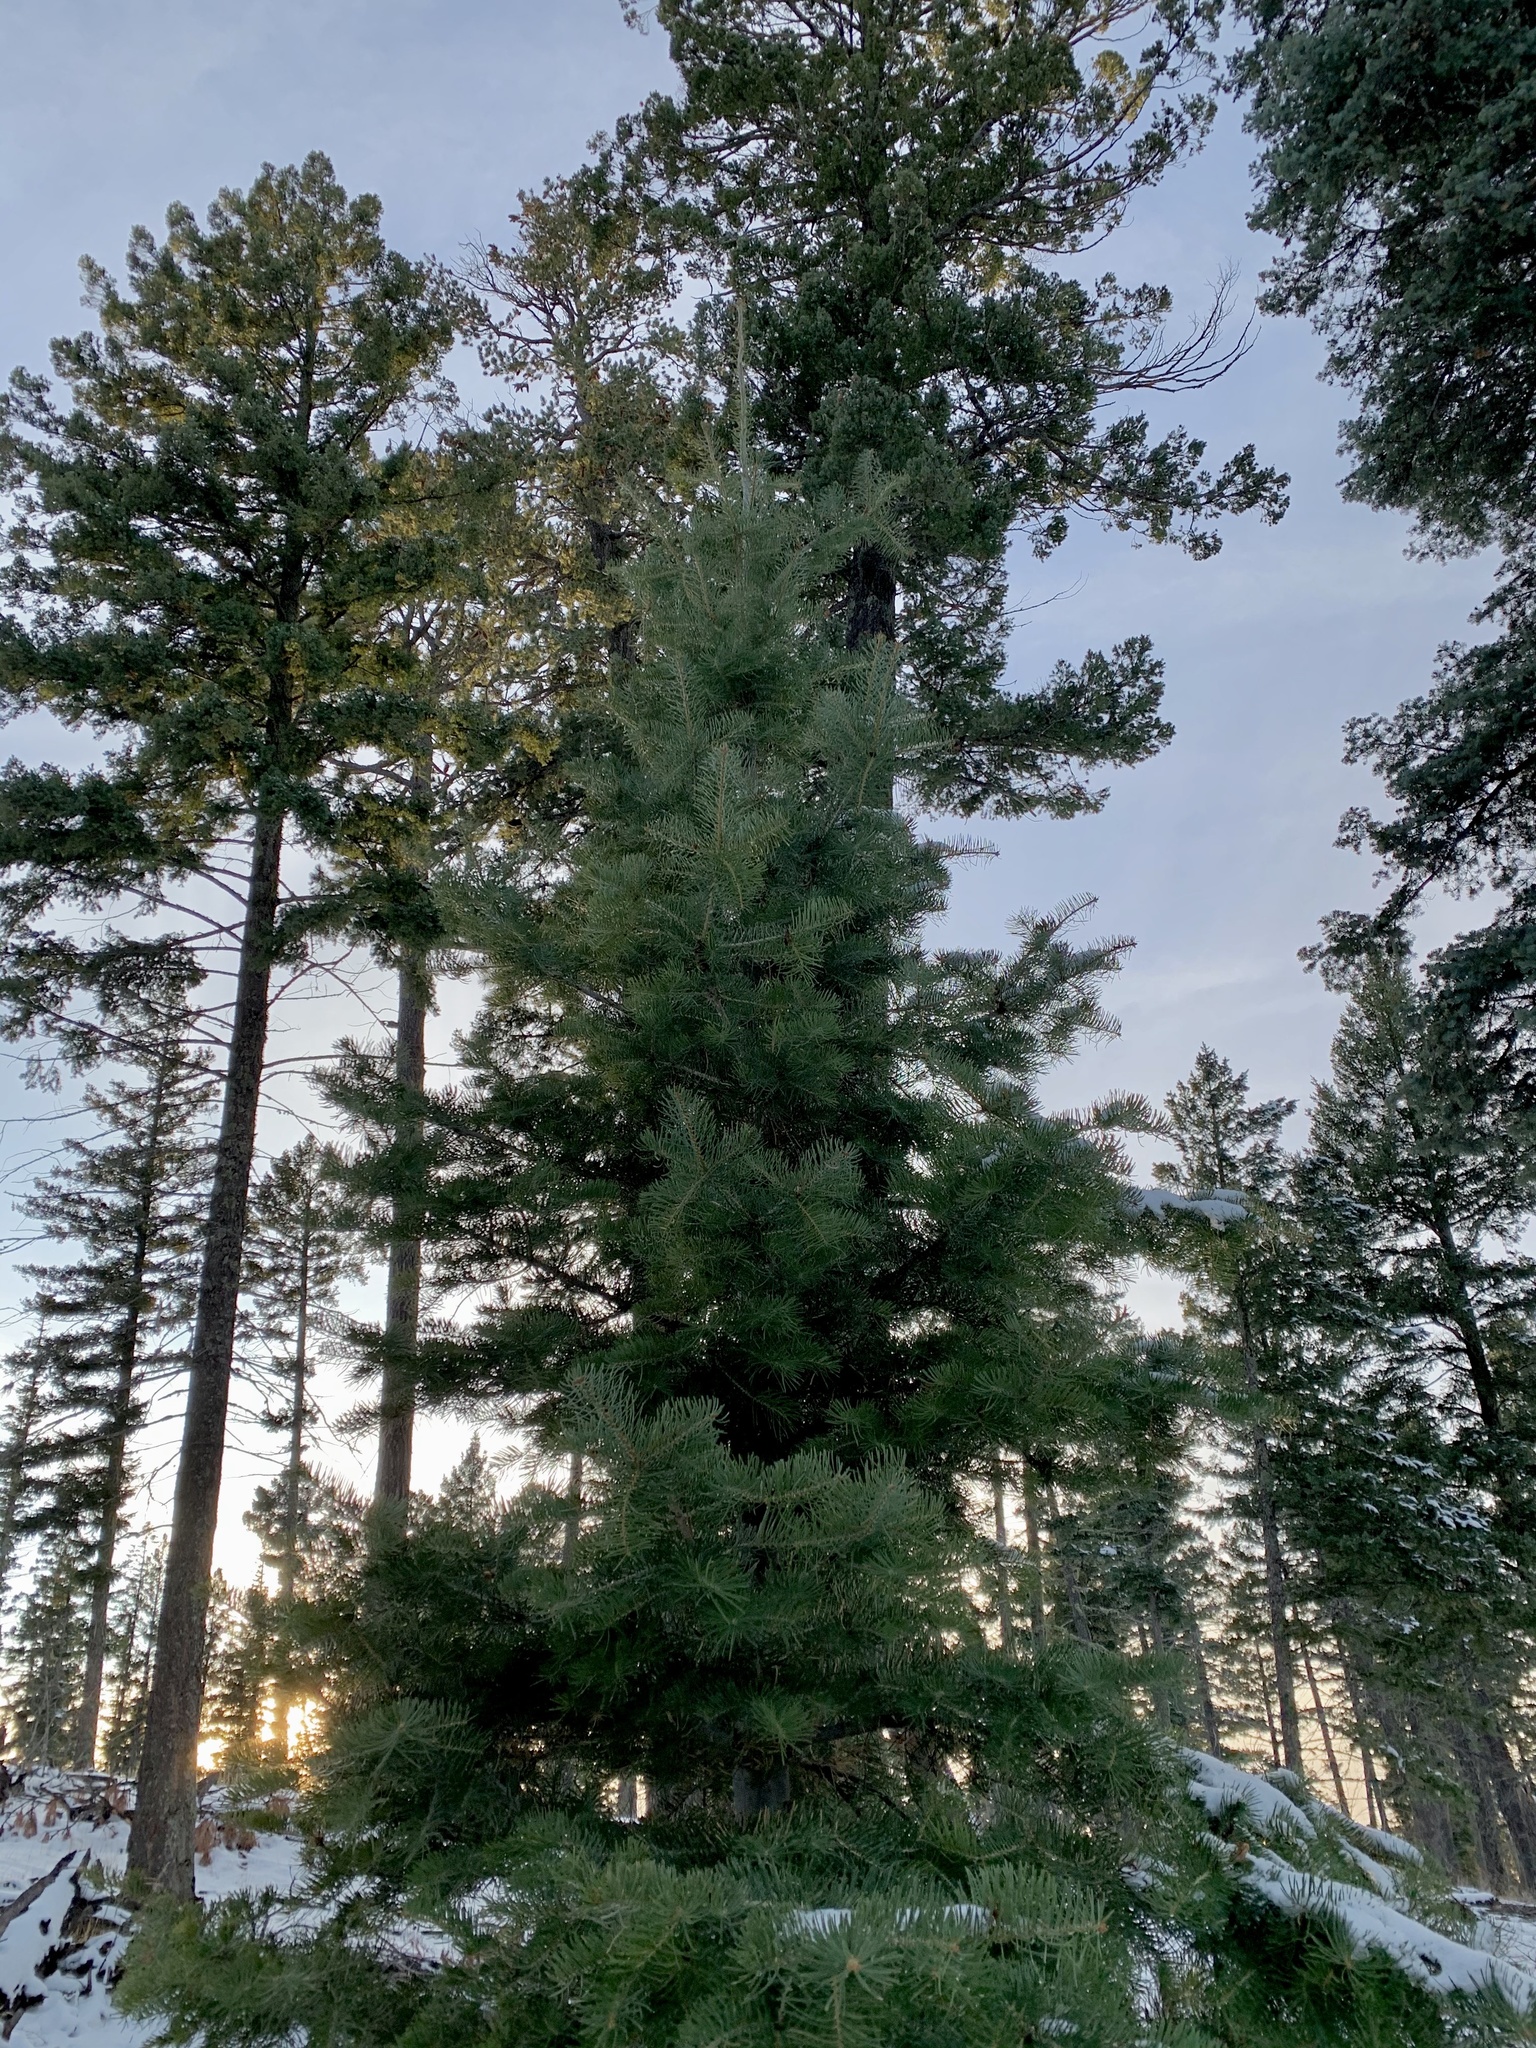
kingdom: Plantae
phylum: Tracheophyta
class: Pinopsida
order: Pinales
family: Pinaceae
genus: Abies
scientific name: Abies concolor
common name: Colorado fir
